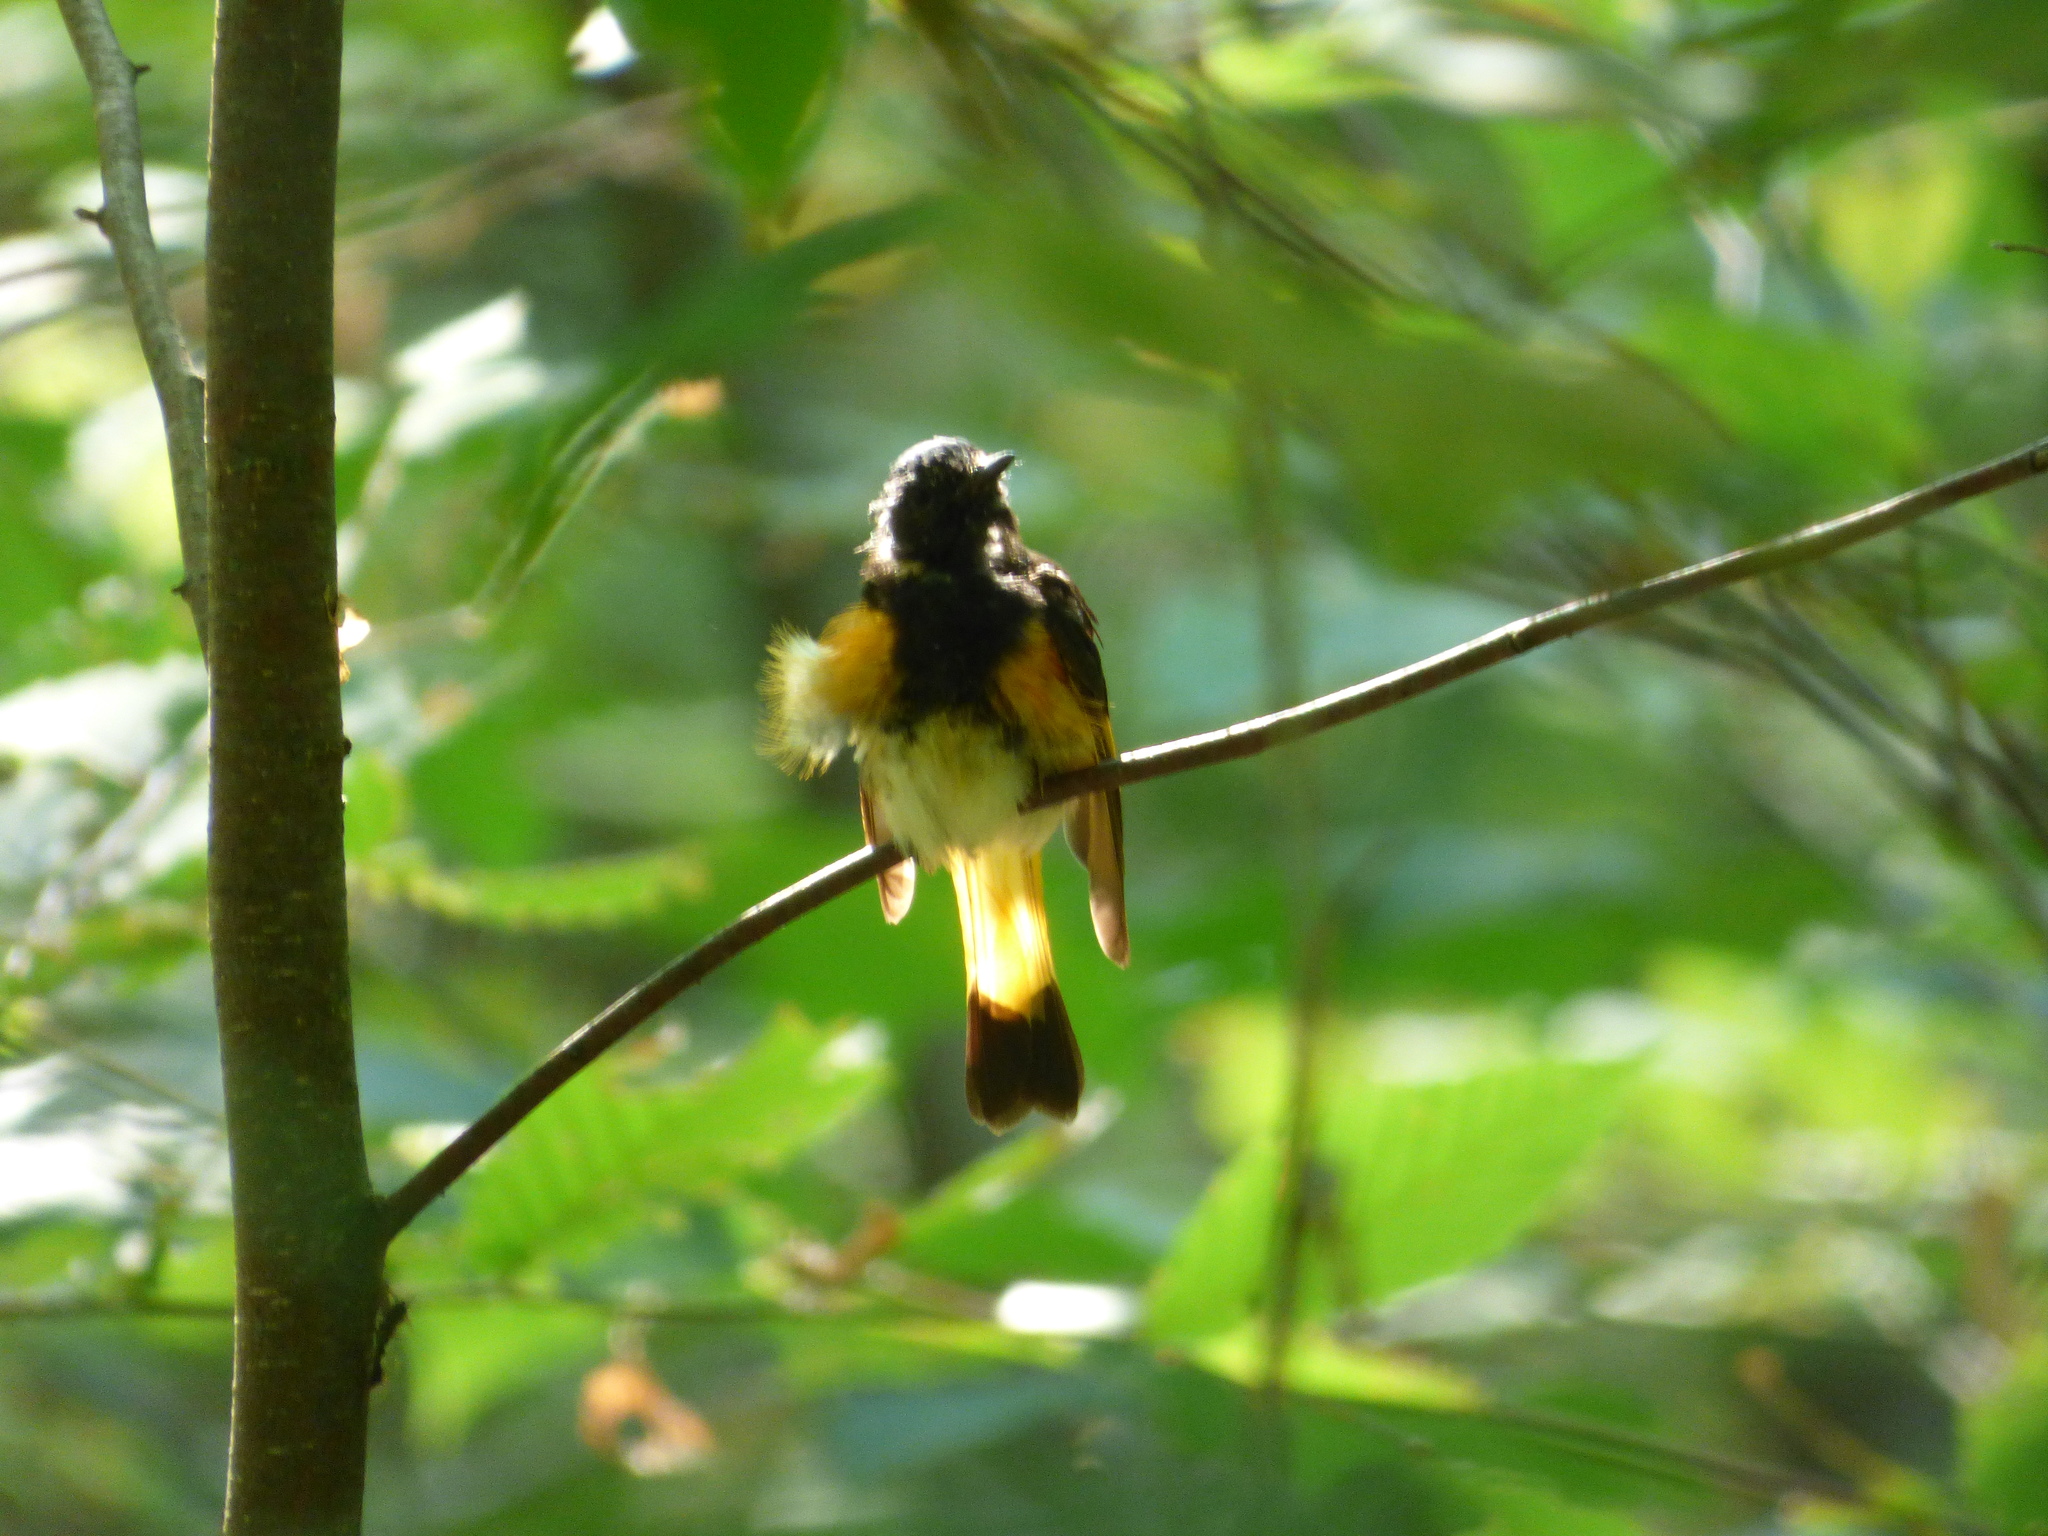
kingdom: Animalia
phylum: Chordata
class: Aves
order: Passeriformes
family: Parulidae
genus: Setophaga
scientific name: Setophaga ruticilla
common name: American redstart
